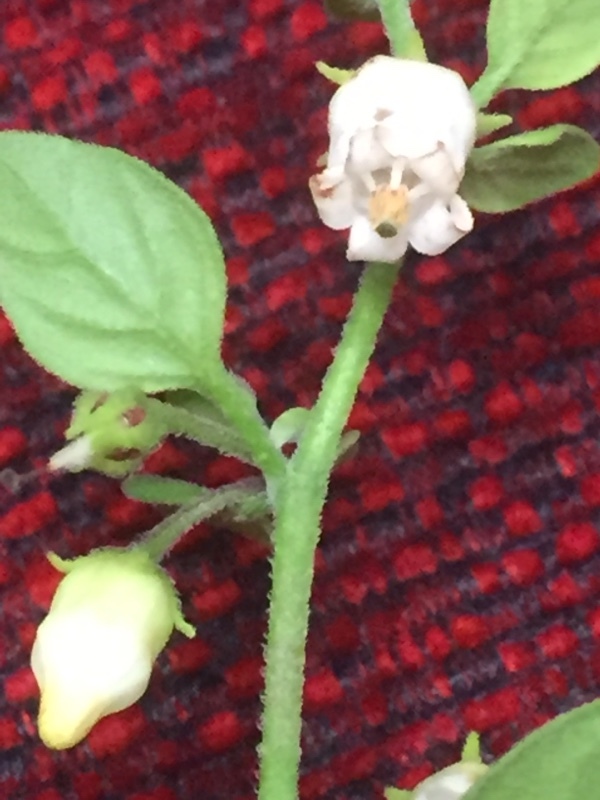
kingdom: Plantae
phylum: Tracheophyta
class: Magnoliopsida
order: Solanales
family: Solanaceae
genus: Salpichroa
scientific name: Salpichroa origanifolia
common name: Lily-of-the-valley-vine
